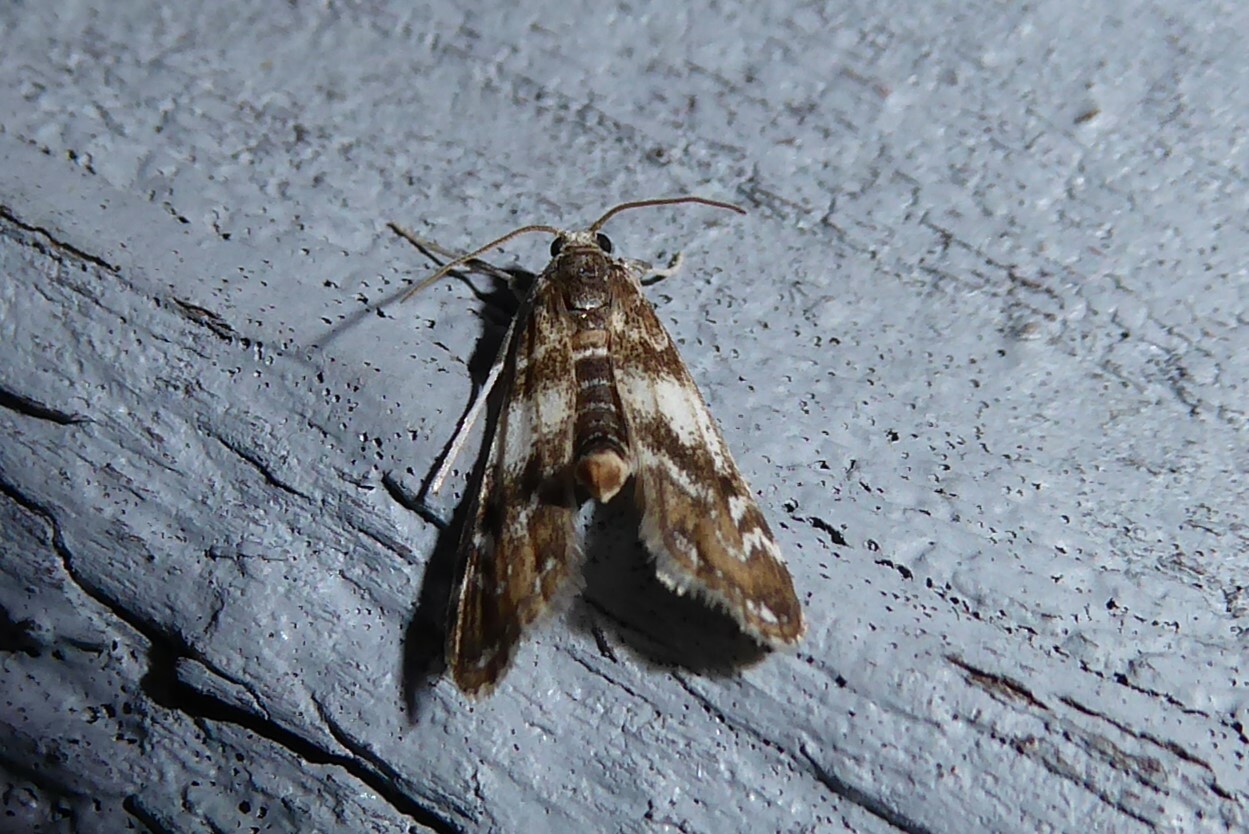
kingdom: Animalia
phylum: Arthropoda
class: Insecta
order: Lepidoptera
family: Crambidae
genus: Hygraula
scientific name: Hygraula nitens
